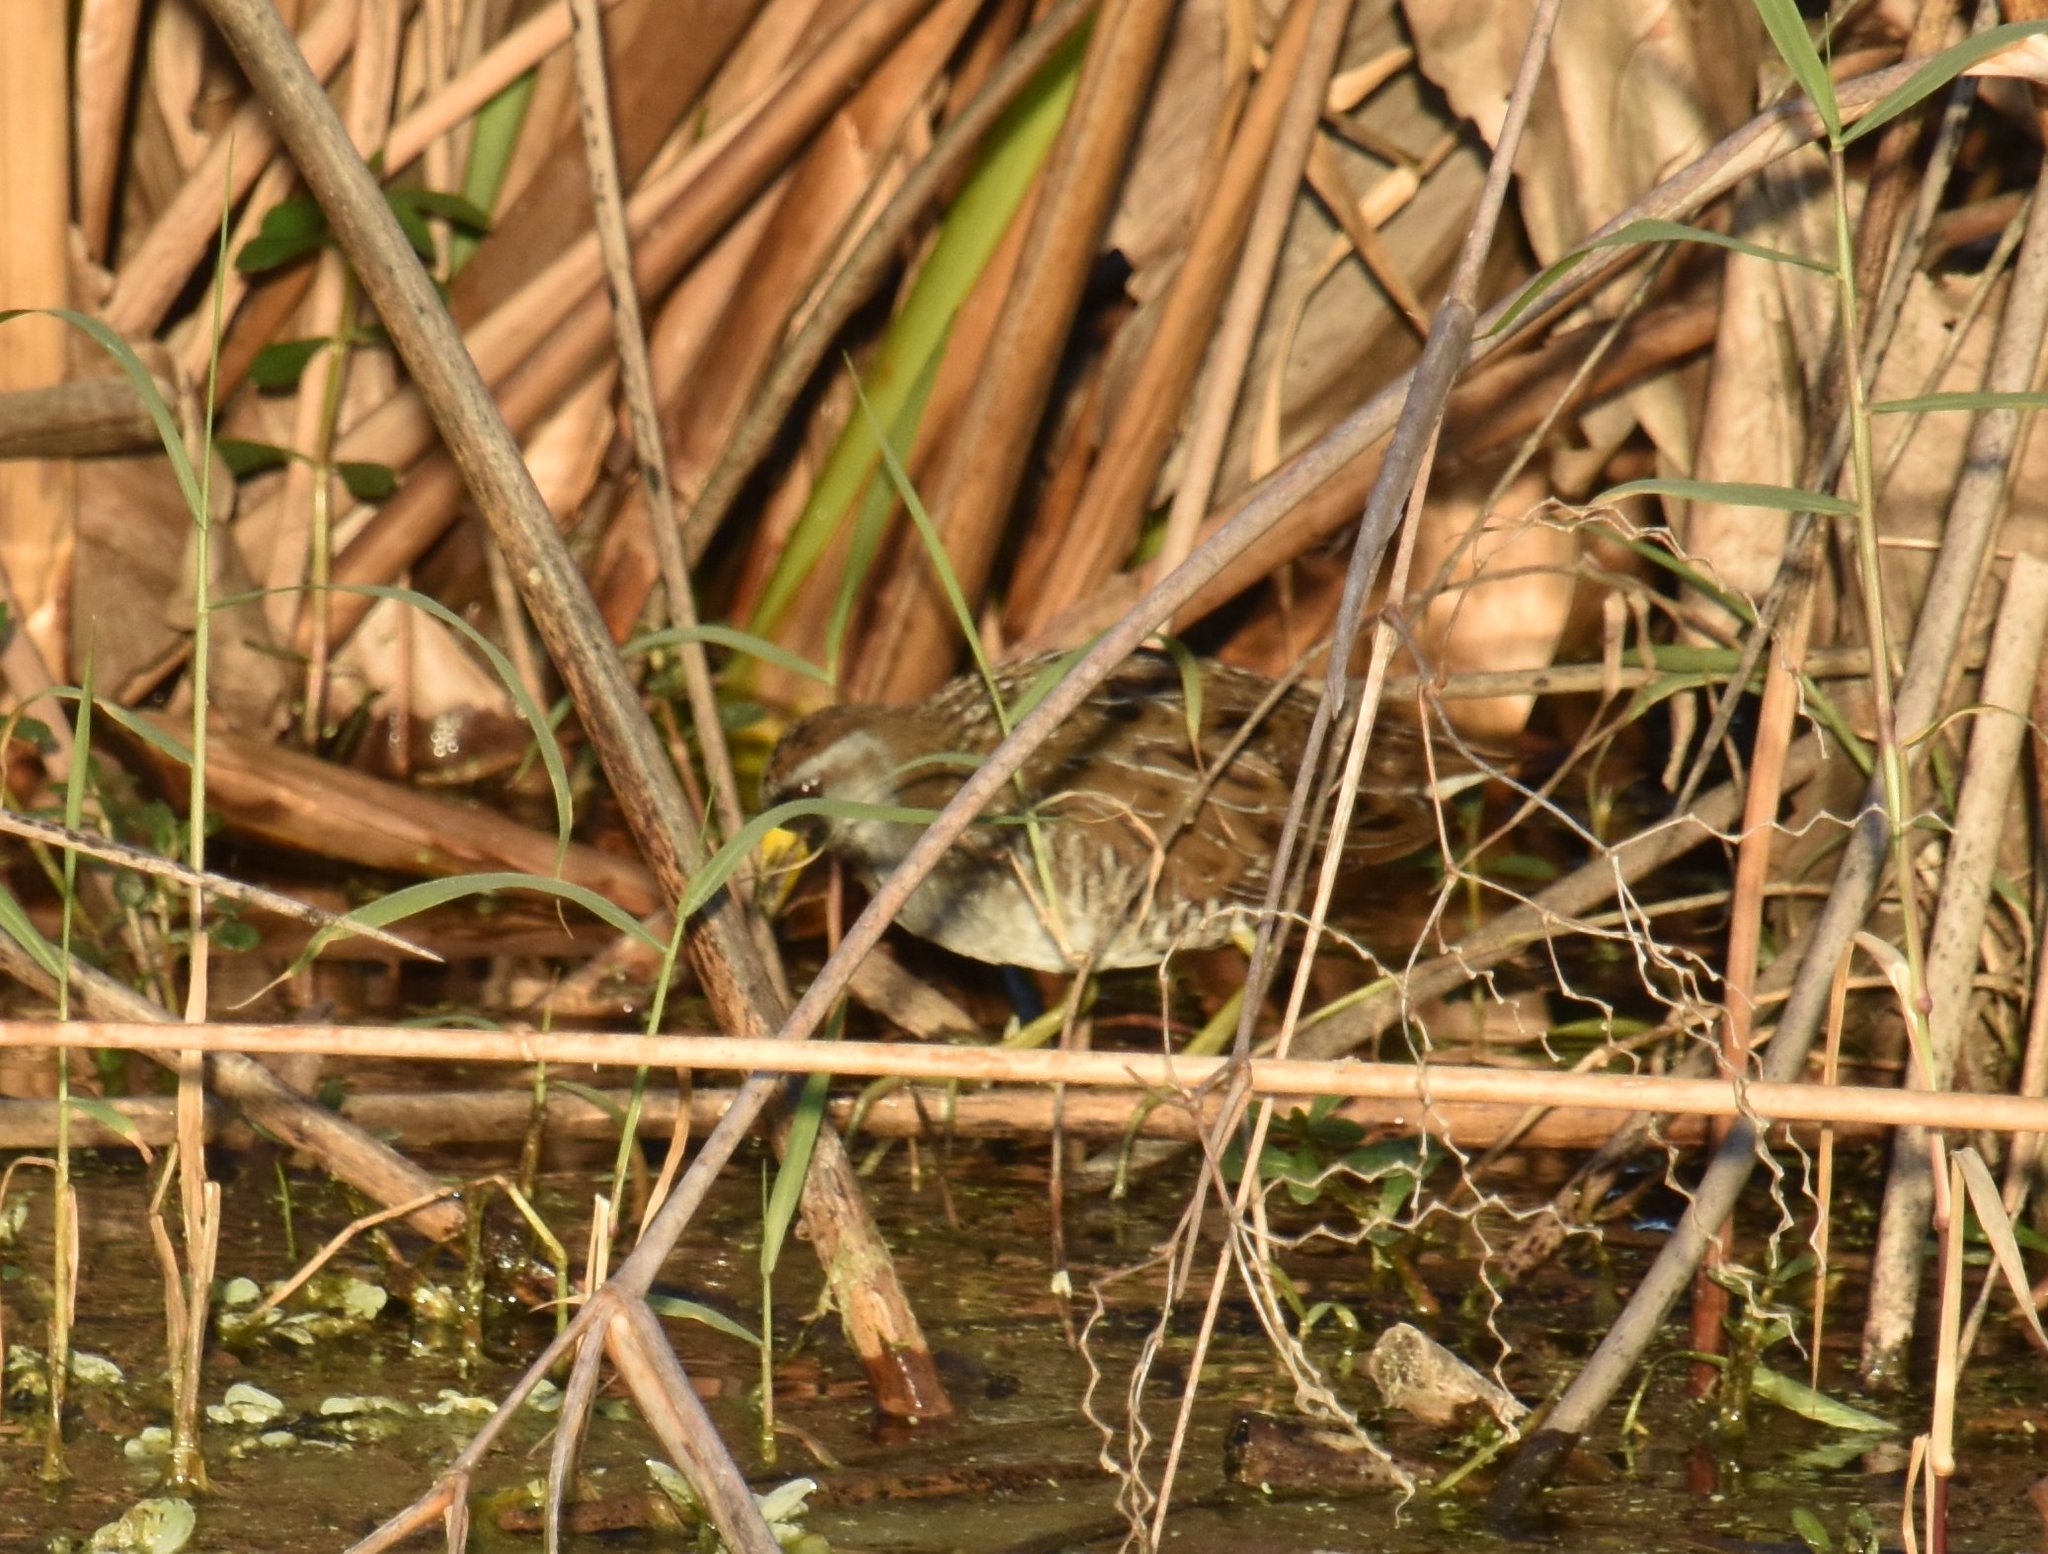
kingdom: Animalia
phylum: Chordata
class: Aves
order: Gruiformes
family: Rallidae
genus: Porzana
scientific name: Porzana carolina
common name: Sora
